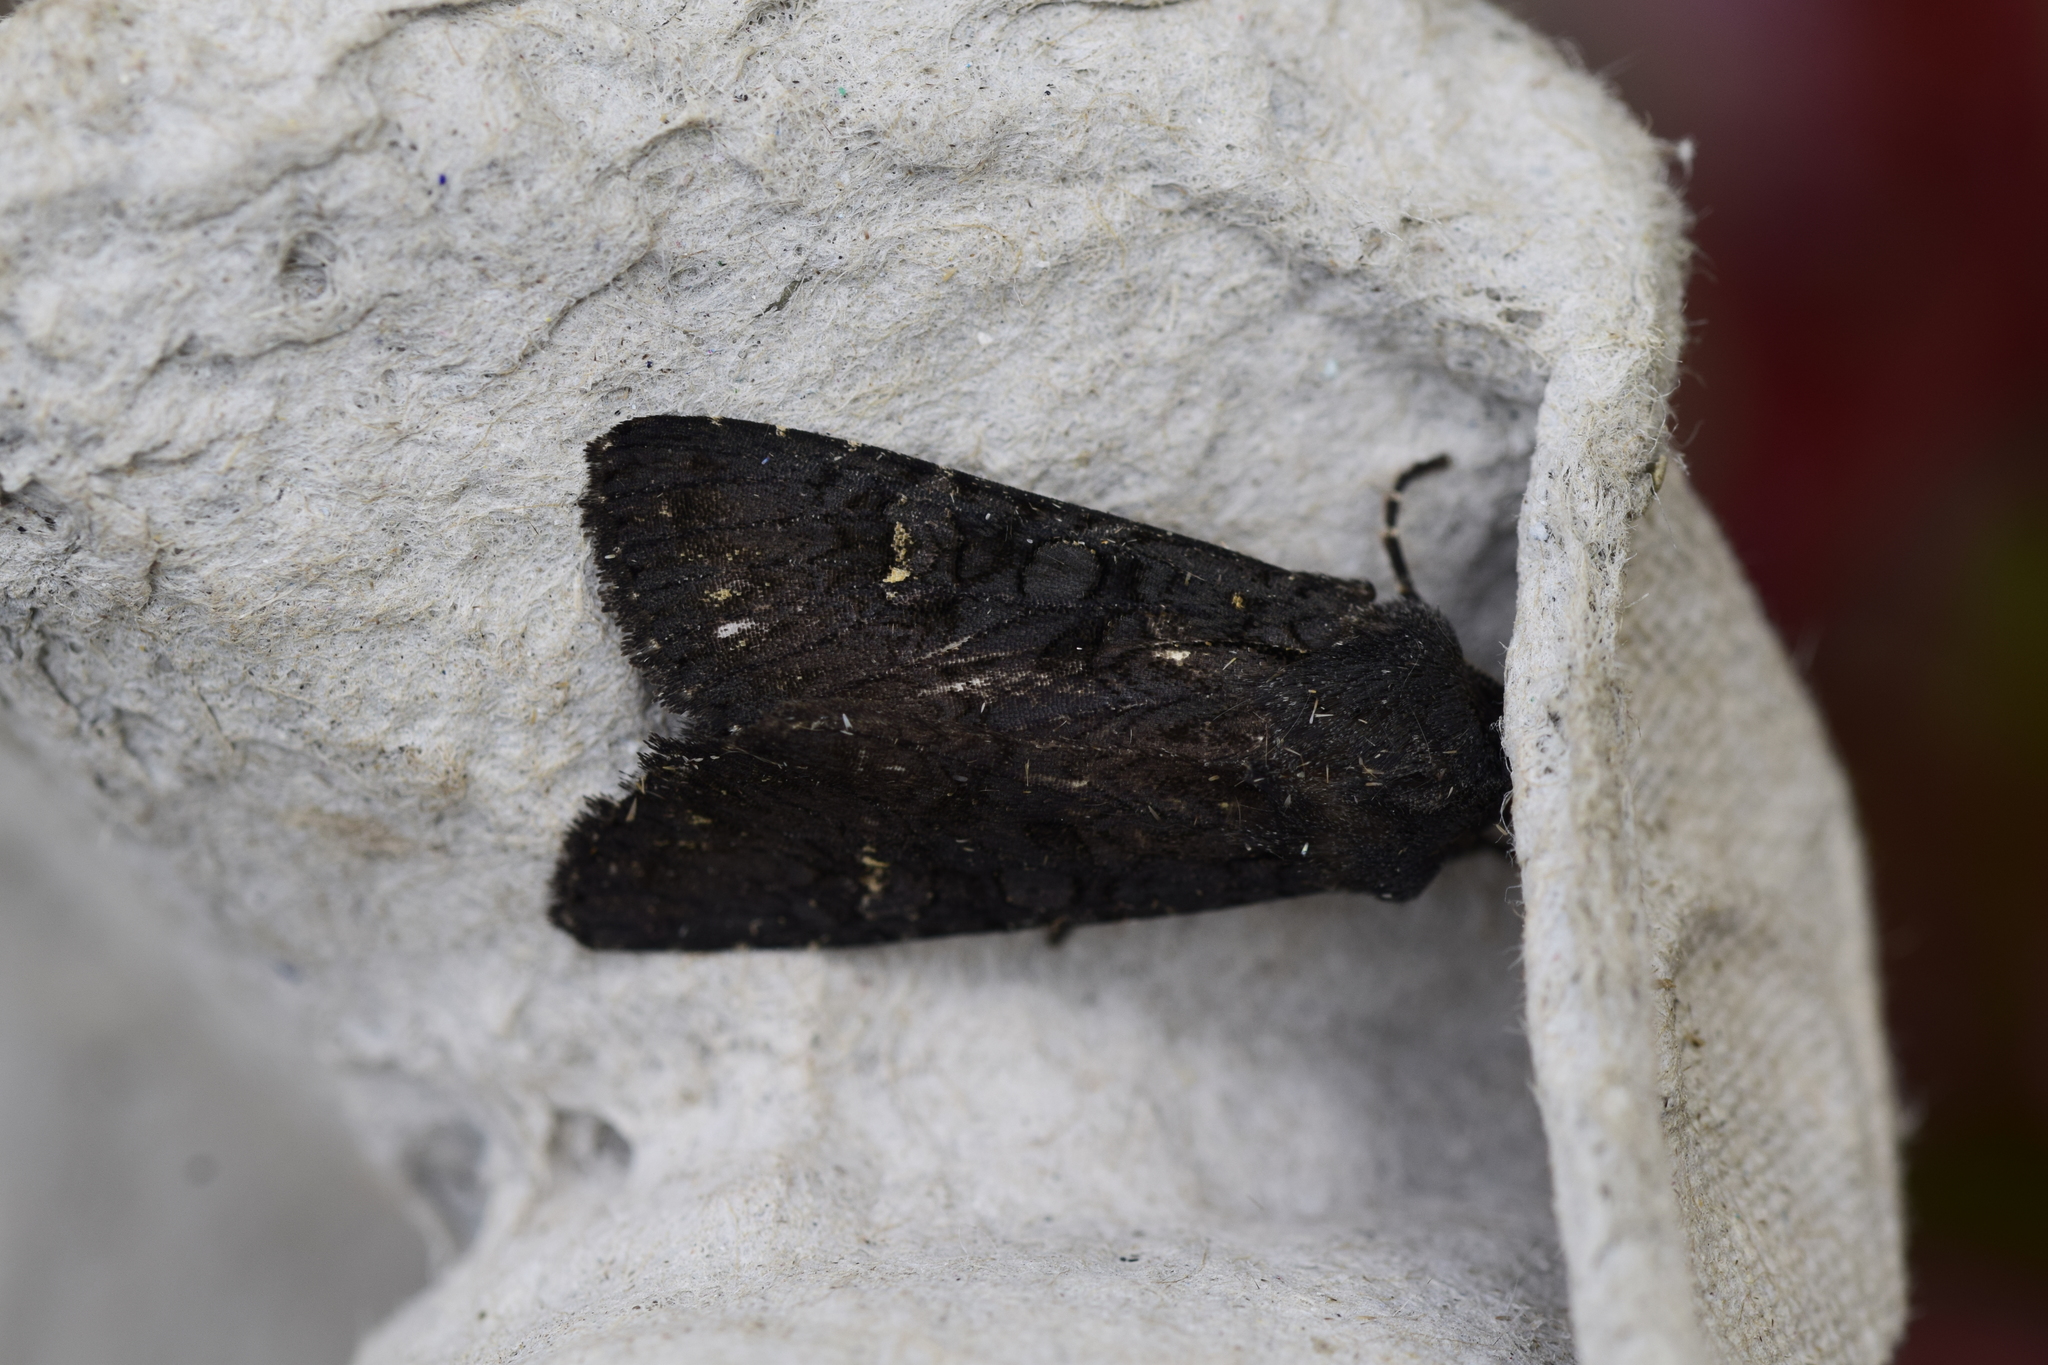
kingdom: Animalia
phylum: Arthropoda
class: Insecta
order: Lepidoptera
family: Noctuidae
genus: Aporophyla
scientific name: Aporophyla nigra
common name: Black rustic
